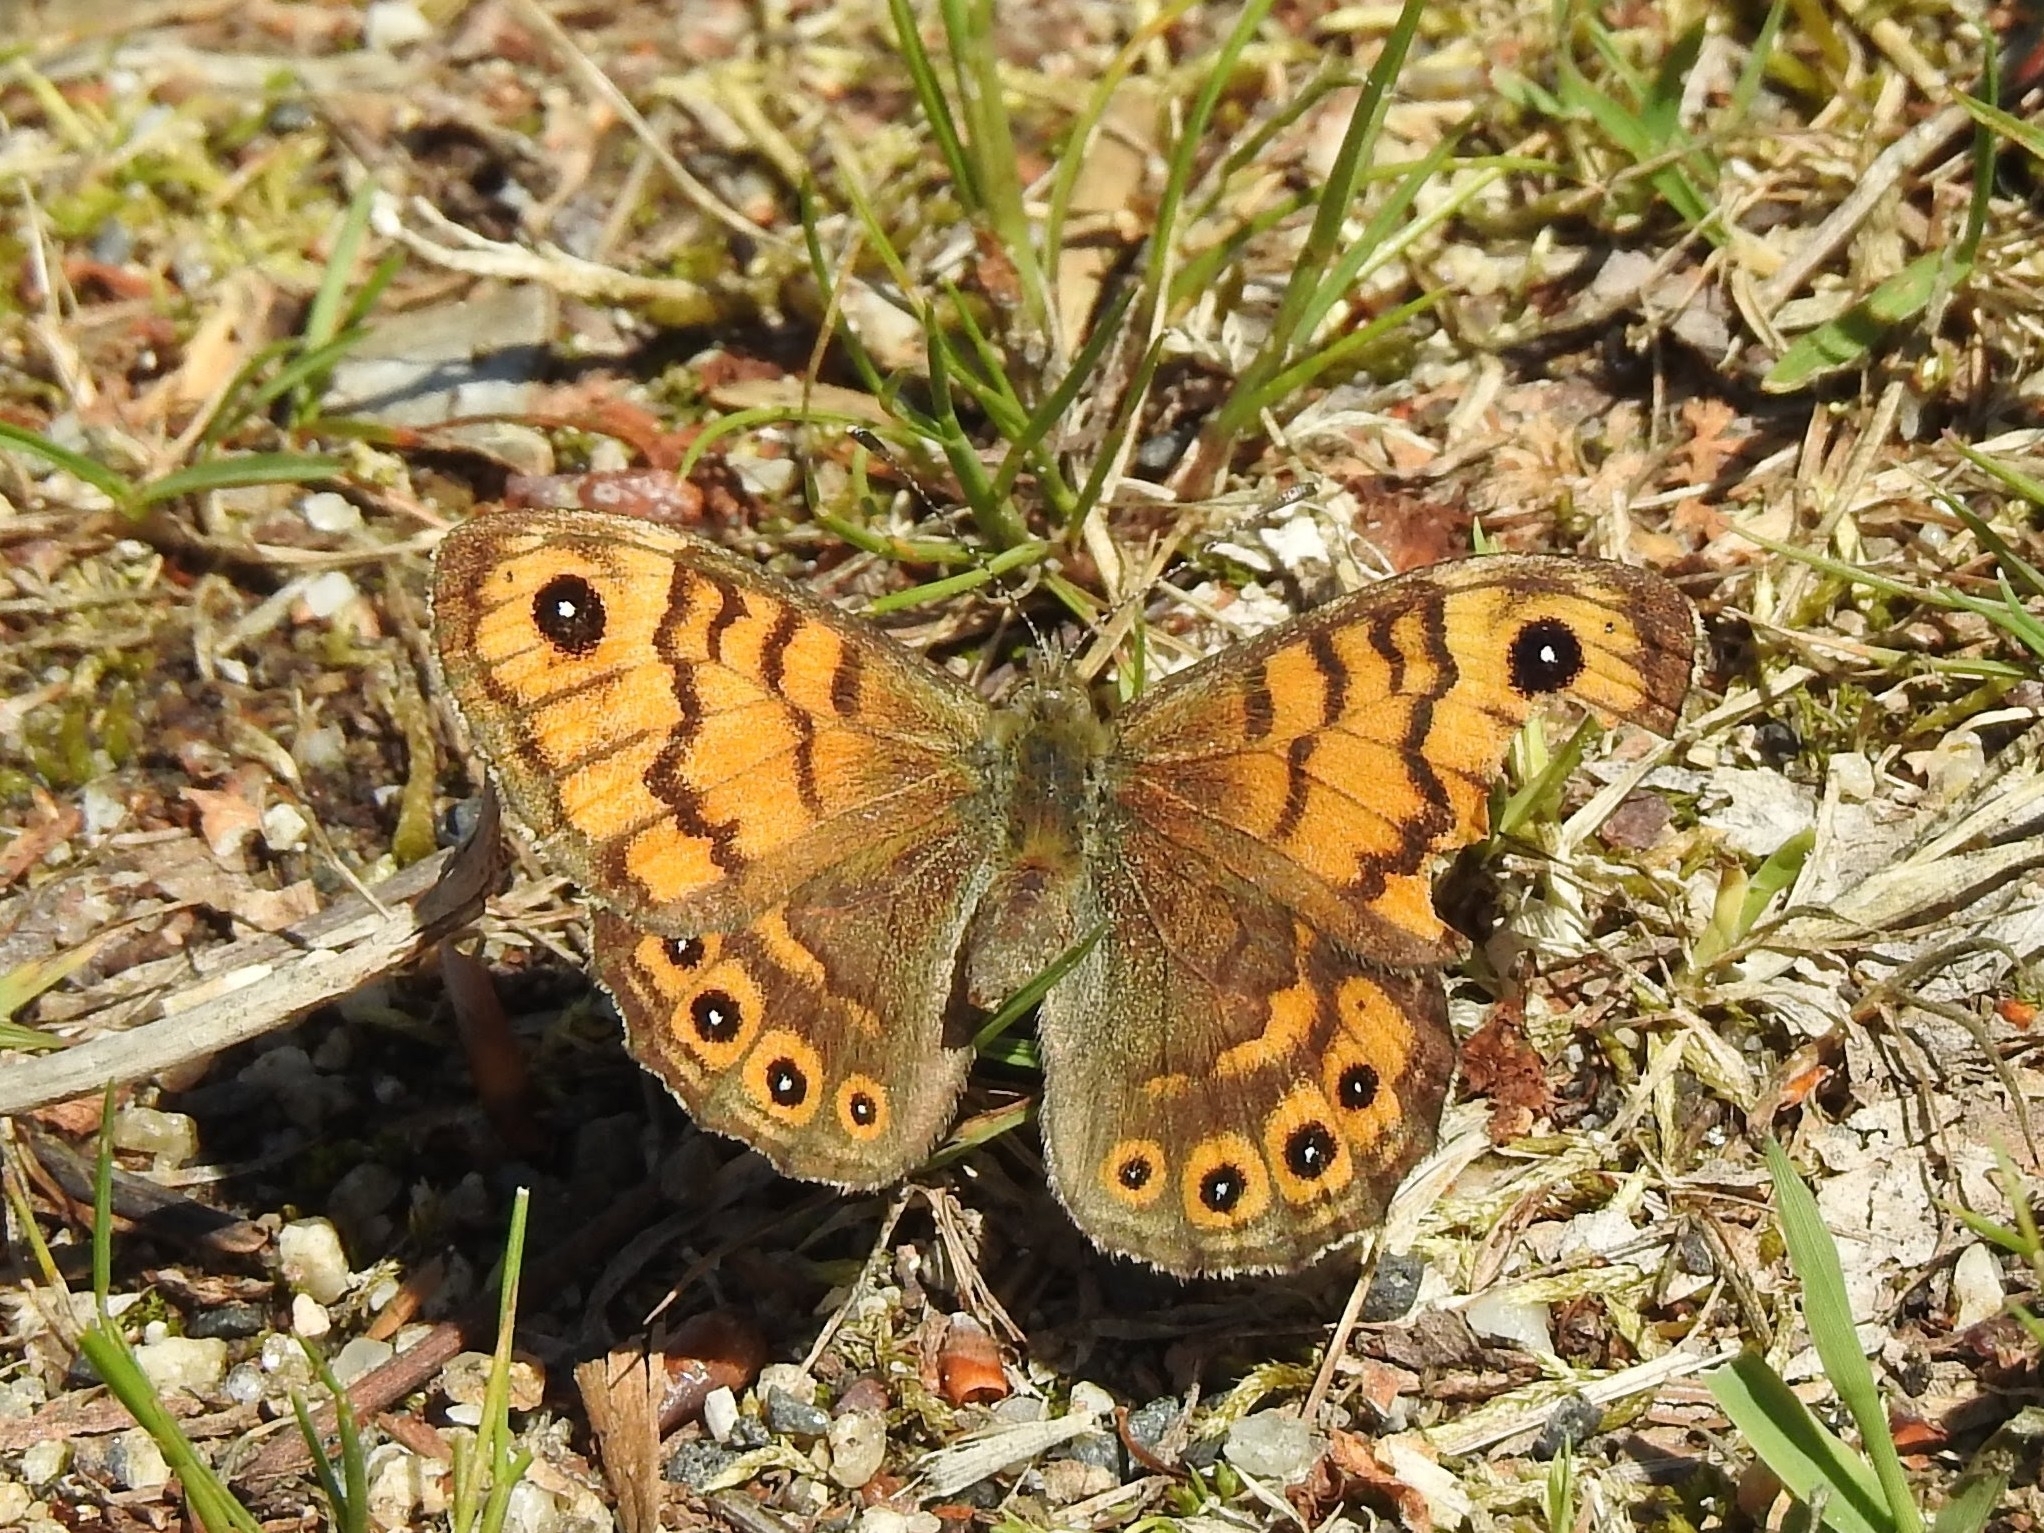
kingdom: Animalia
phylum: Arthropoda
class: Insecta
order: Lepidoptera
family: Nymphalidae
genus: Pararge
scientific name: Pararge Lasiommata megera
